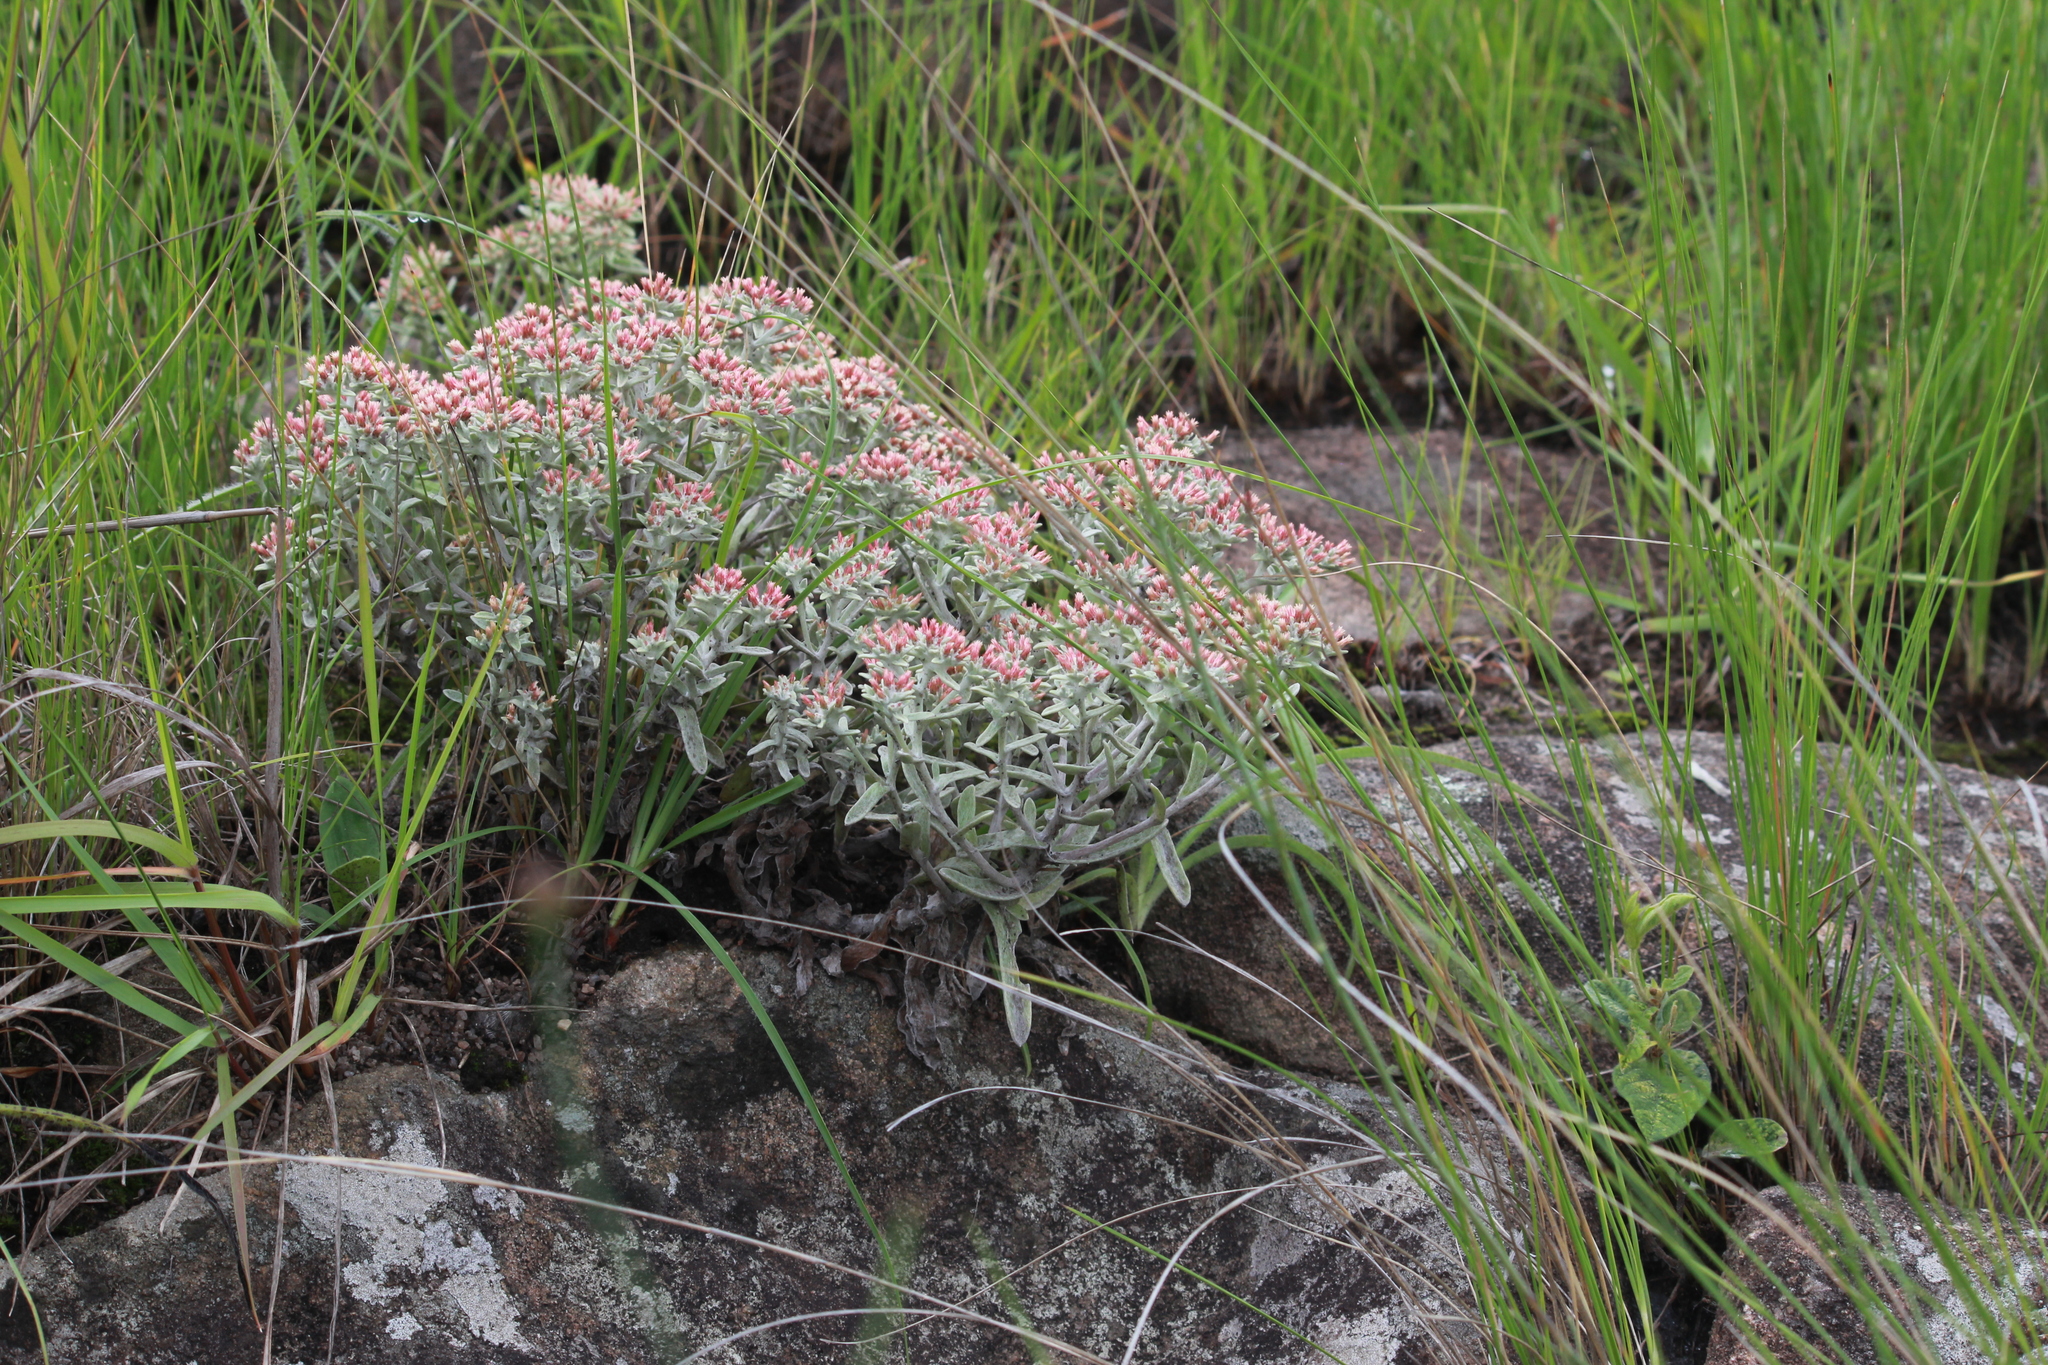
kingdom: Plantae
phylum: Tracheophyta
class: Magnoliopsida
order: Asterales
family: Asteraceae
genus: Helichrysum
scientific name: Helichrysum spiralepis
